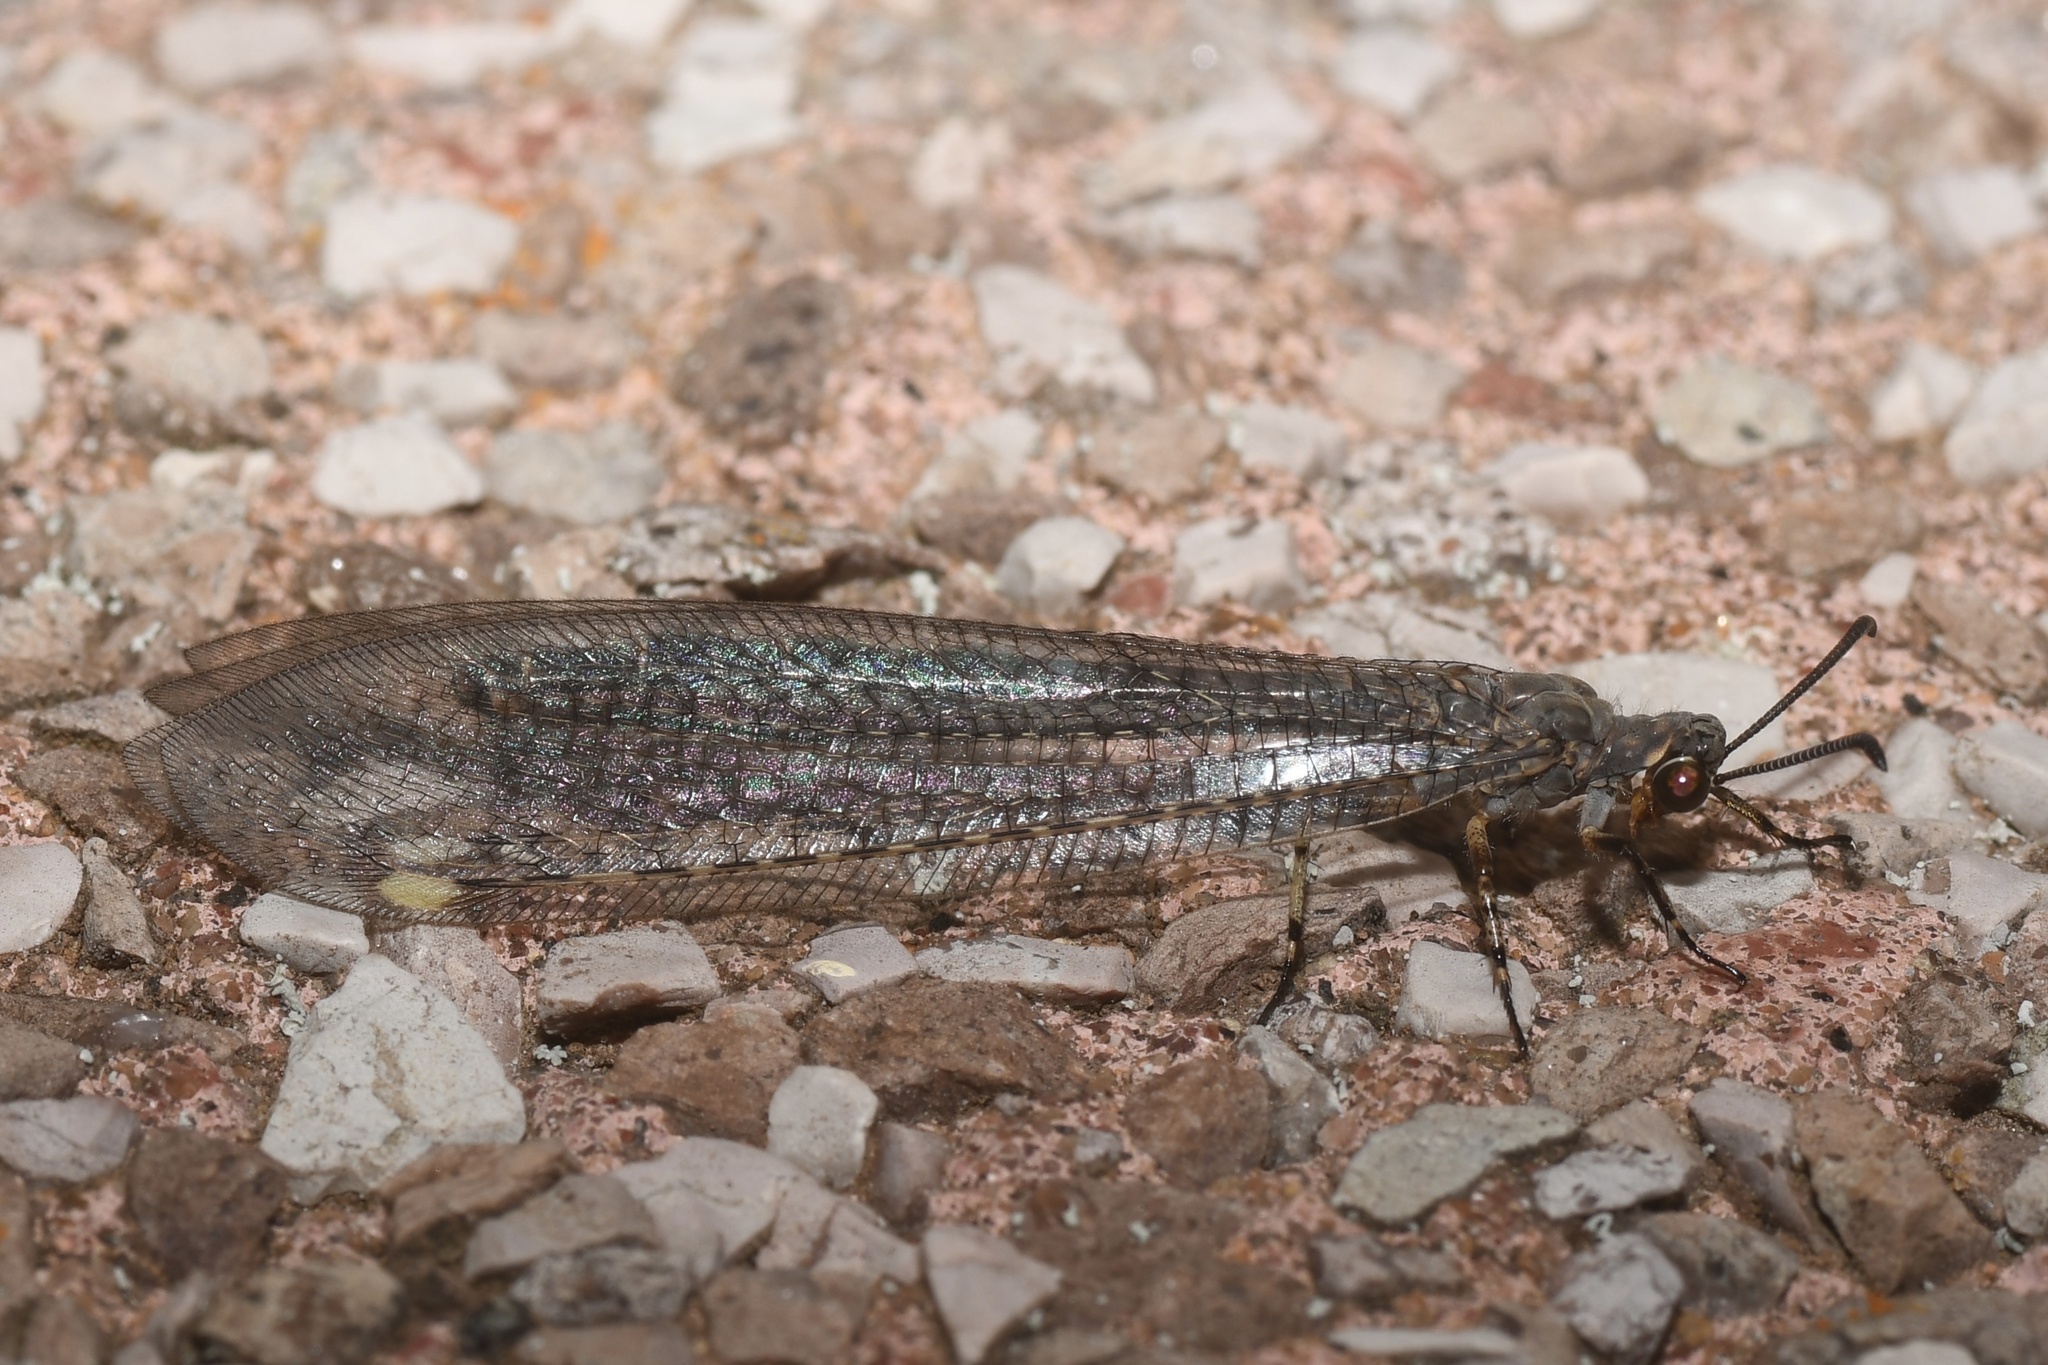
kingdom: Animalia
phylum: Arthropoda
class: Insecta
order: Neuroptera
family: Myrmeleontidae
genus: Myrmeleon
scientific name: Myrmeleon immaculatus
